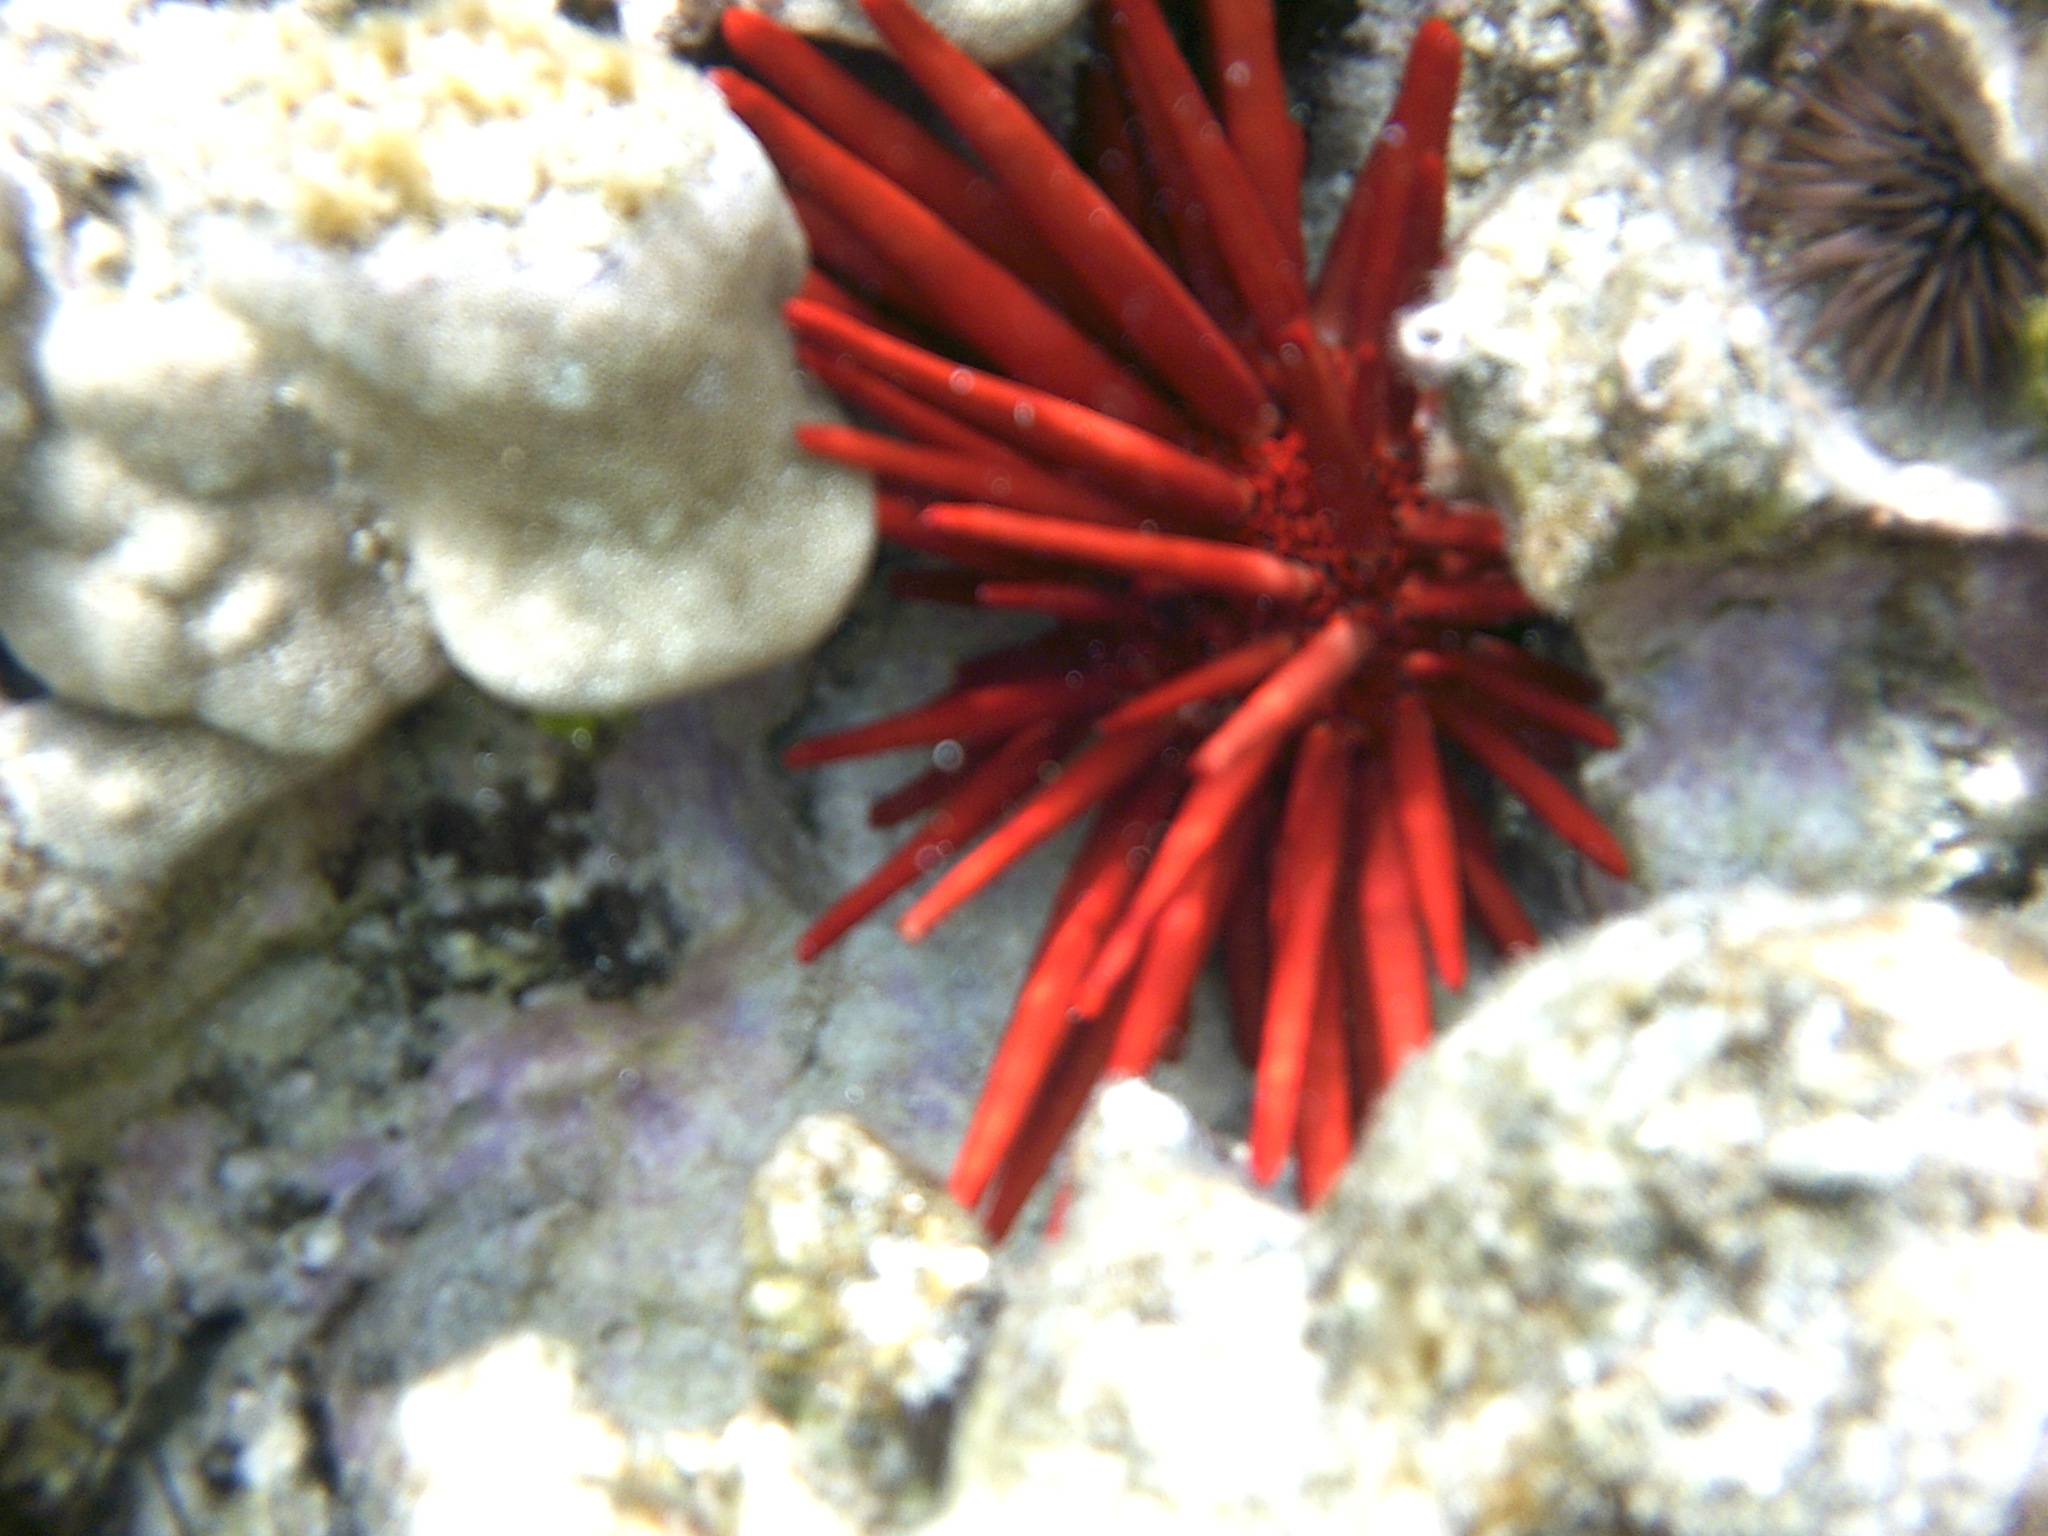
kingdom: Animalia
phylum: Echinodermata
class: Echinoidea
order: Camarodonta
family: Echinometridae
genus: Heterocentrotus
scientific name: Heterocentrotus mamillatus
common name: Slate pencil urchin
